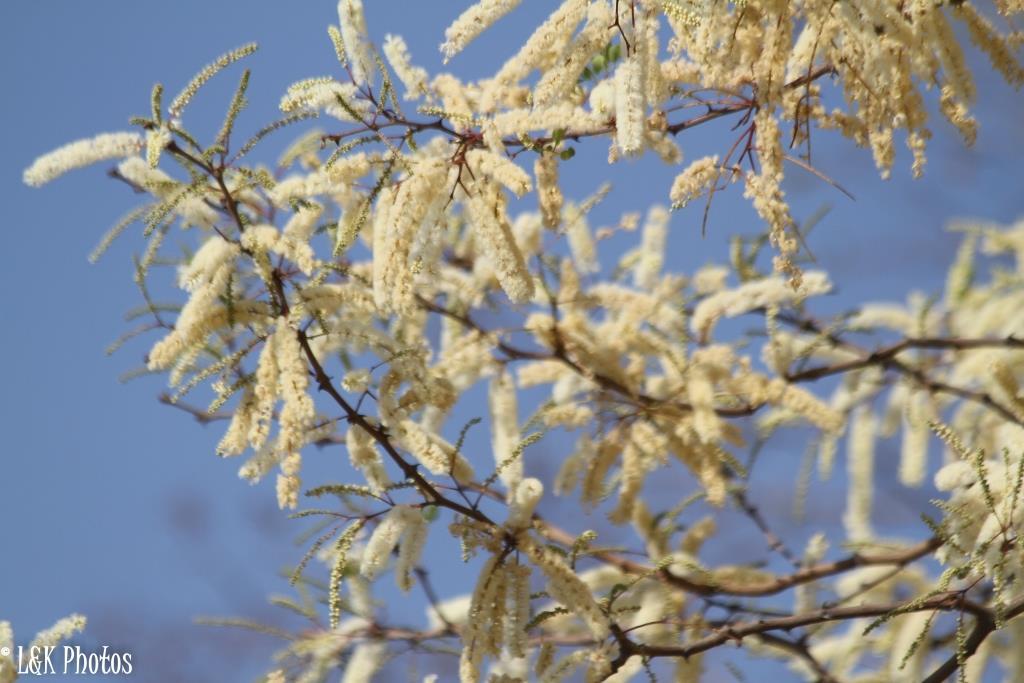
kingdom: Plantae
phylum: Tracheophyta
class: Magnoliopsida
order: Fabales
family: Fabaceae
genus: Senegalia
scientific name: Senegalia nigrescens
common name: Knobthorn
